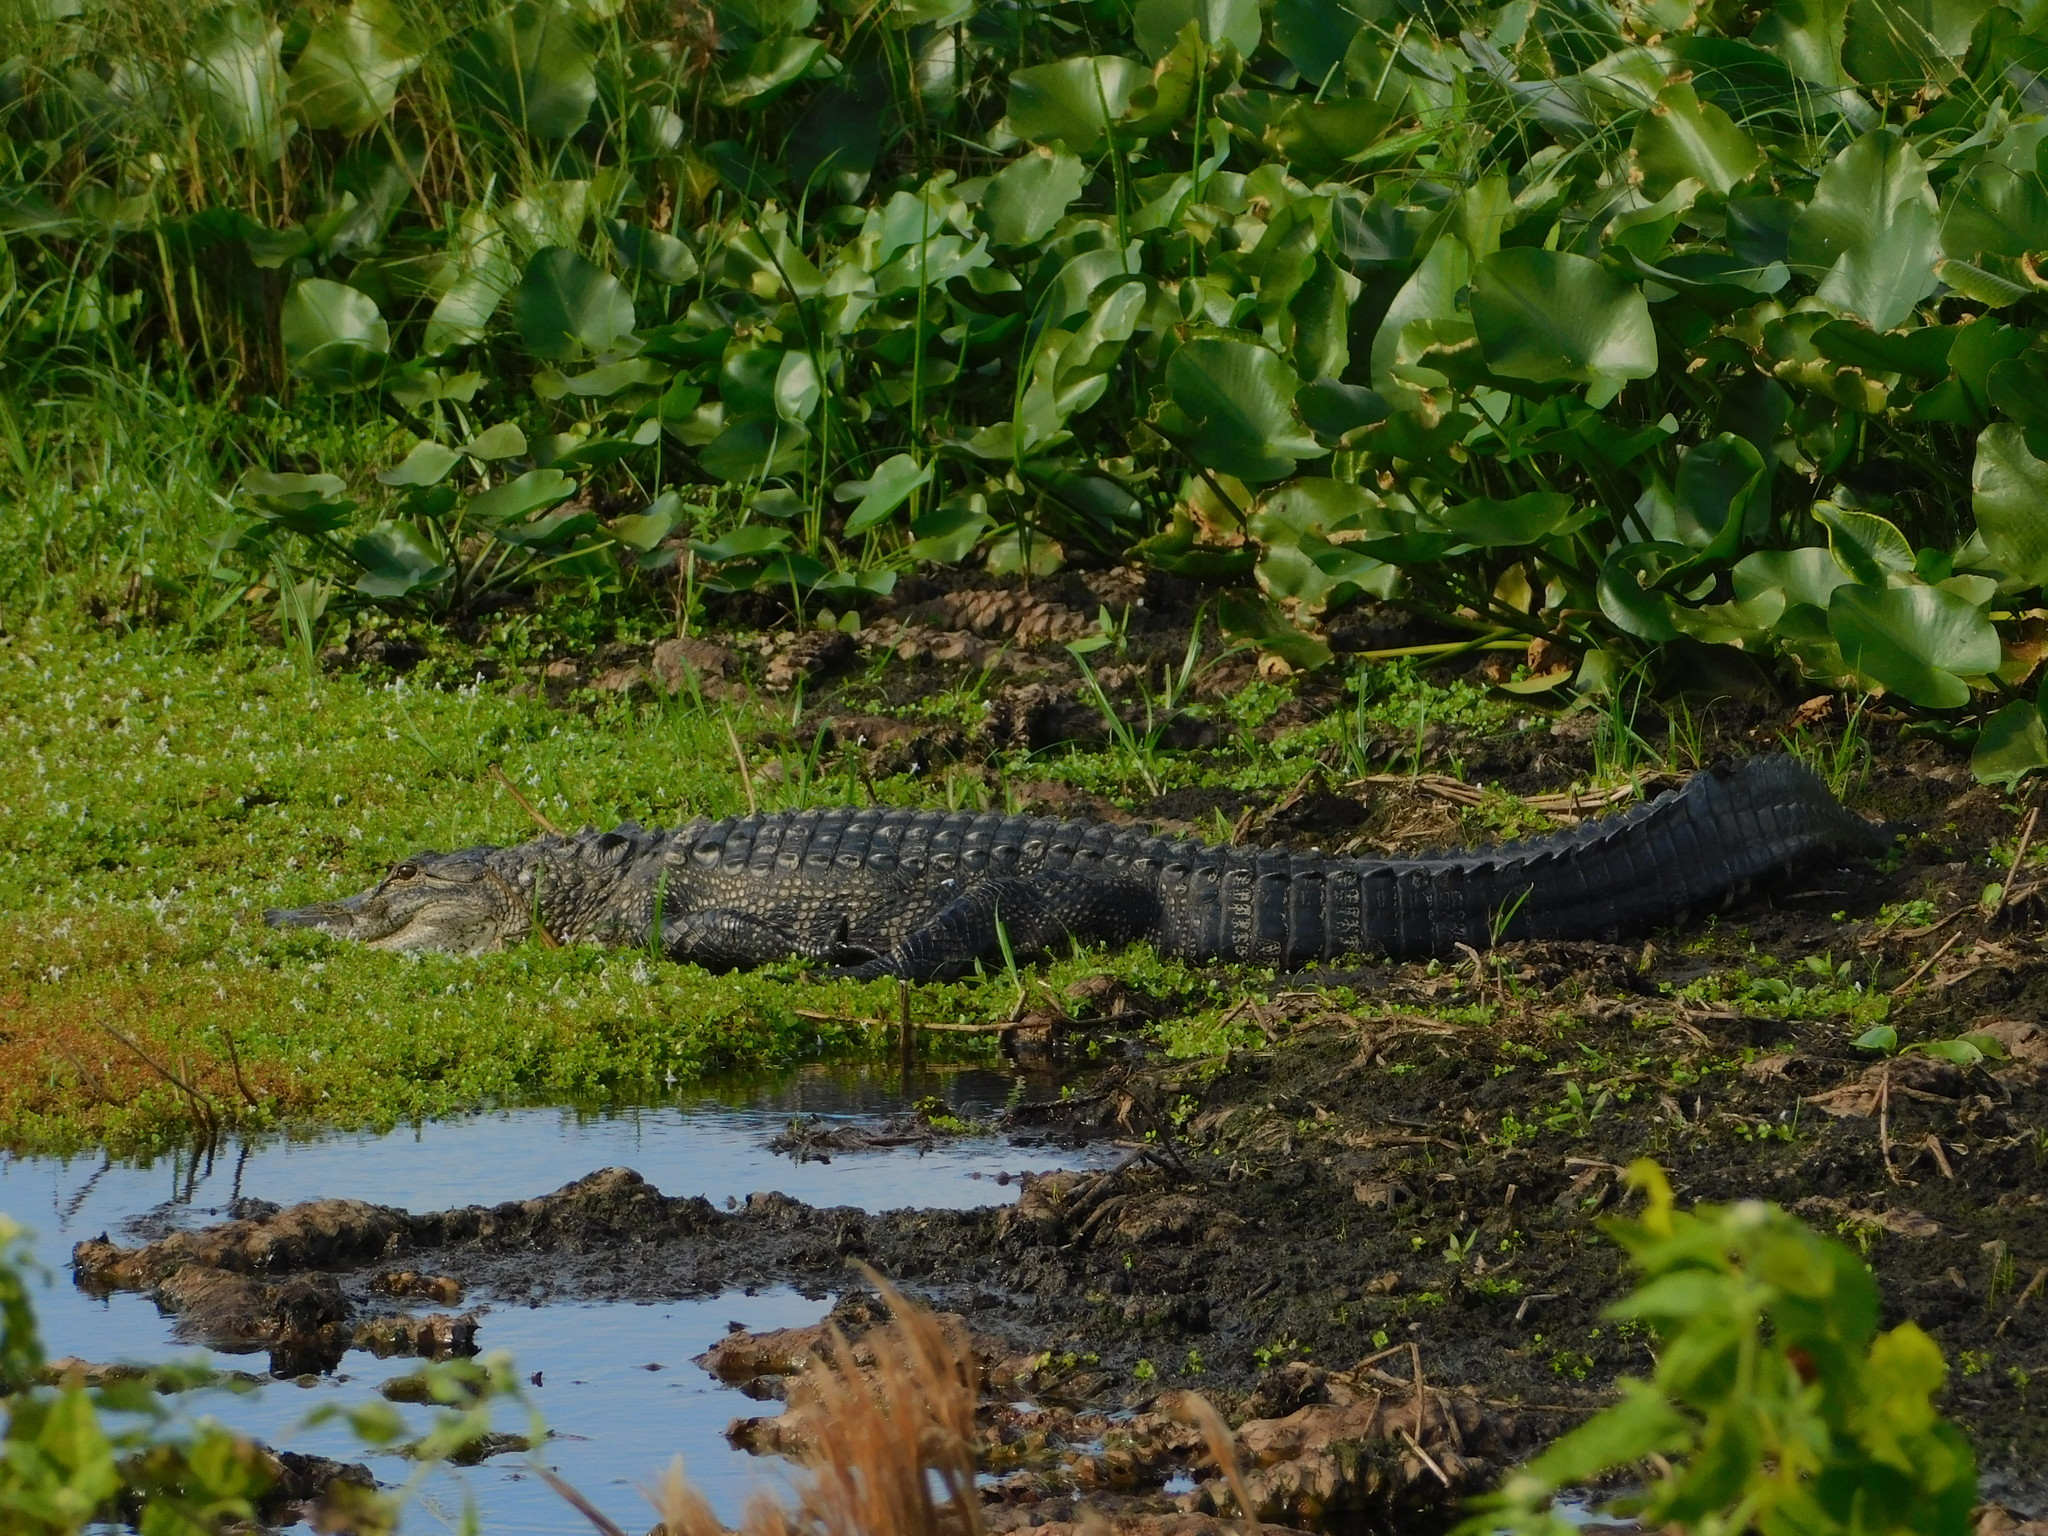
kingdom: Animalia
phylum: Chordata
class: Crocodylia
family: Alligatoridae
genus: Alligator
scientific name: Alligator mississippiensis
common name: American alligator
